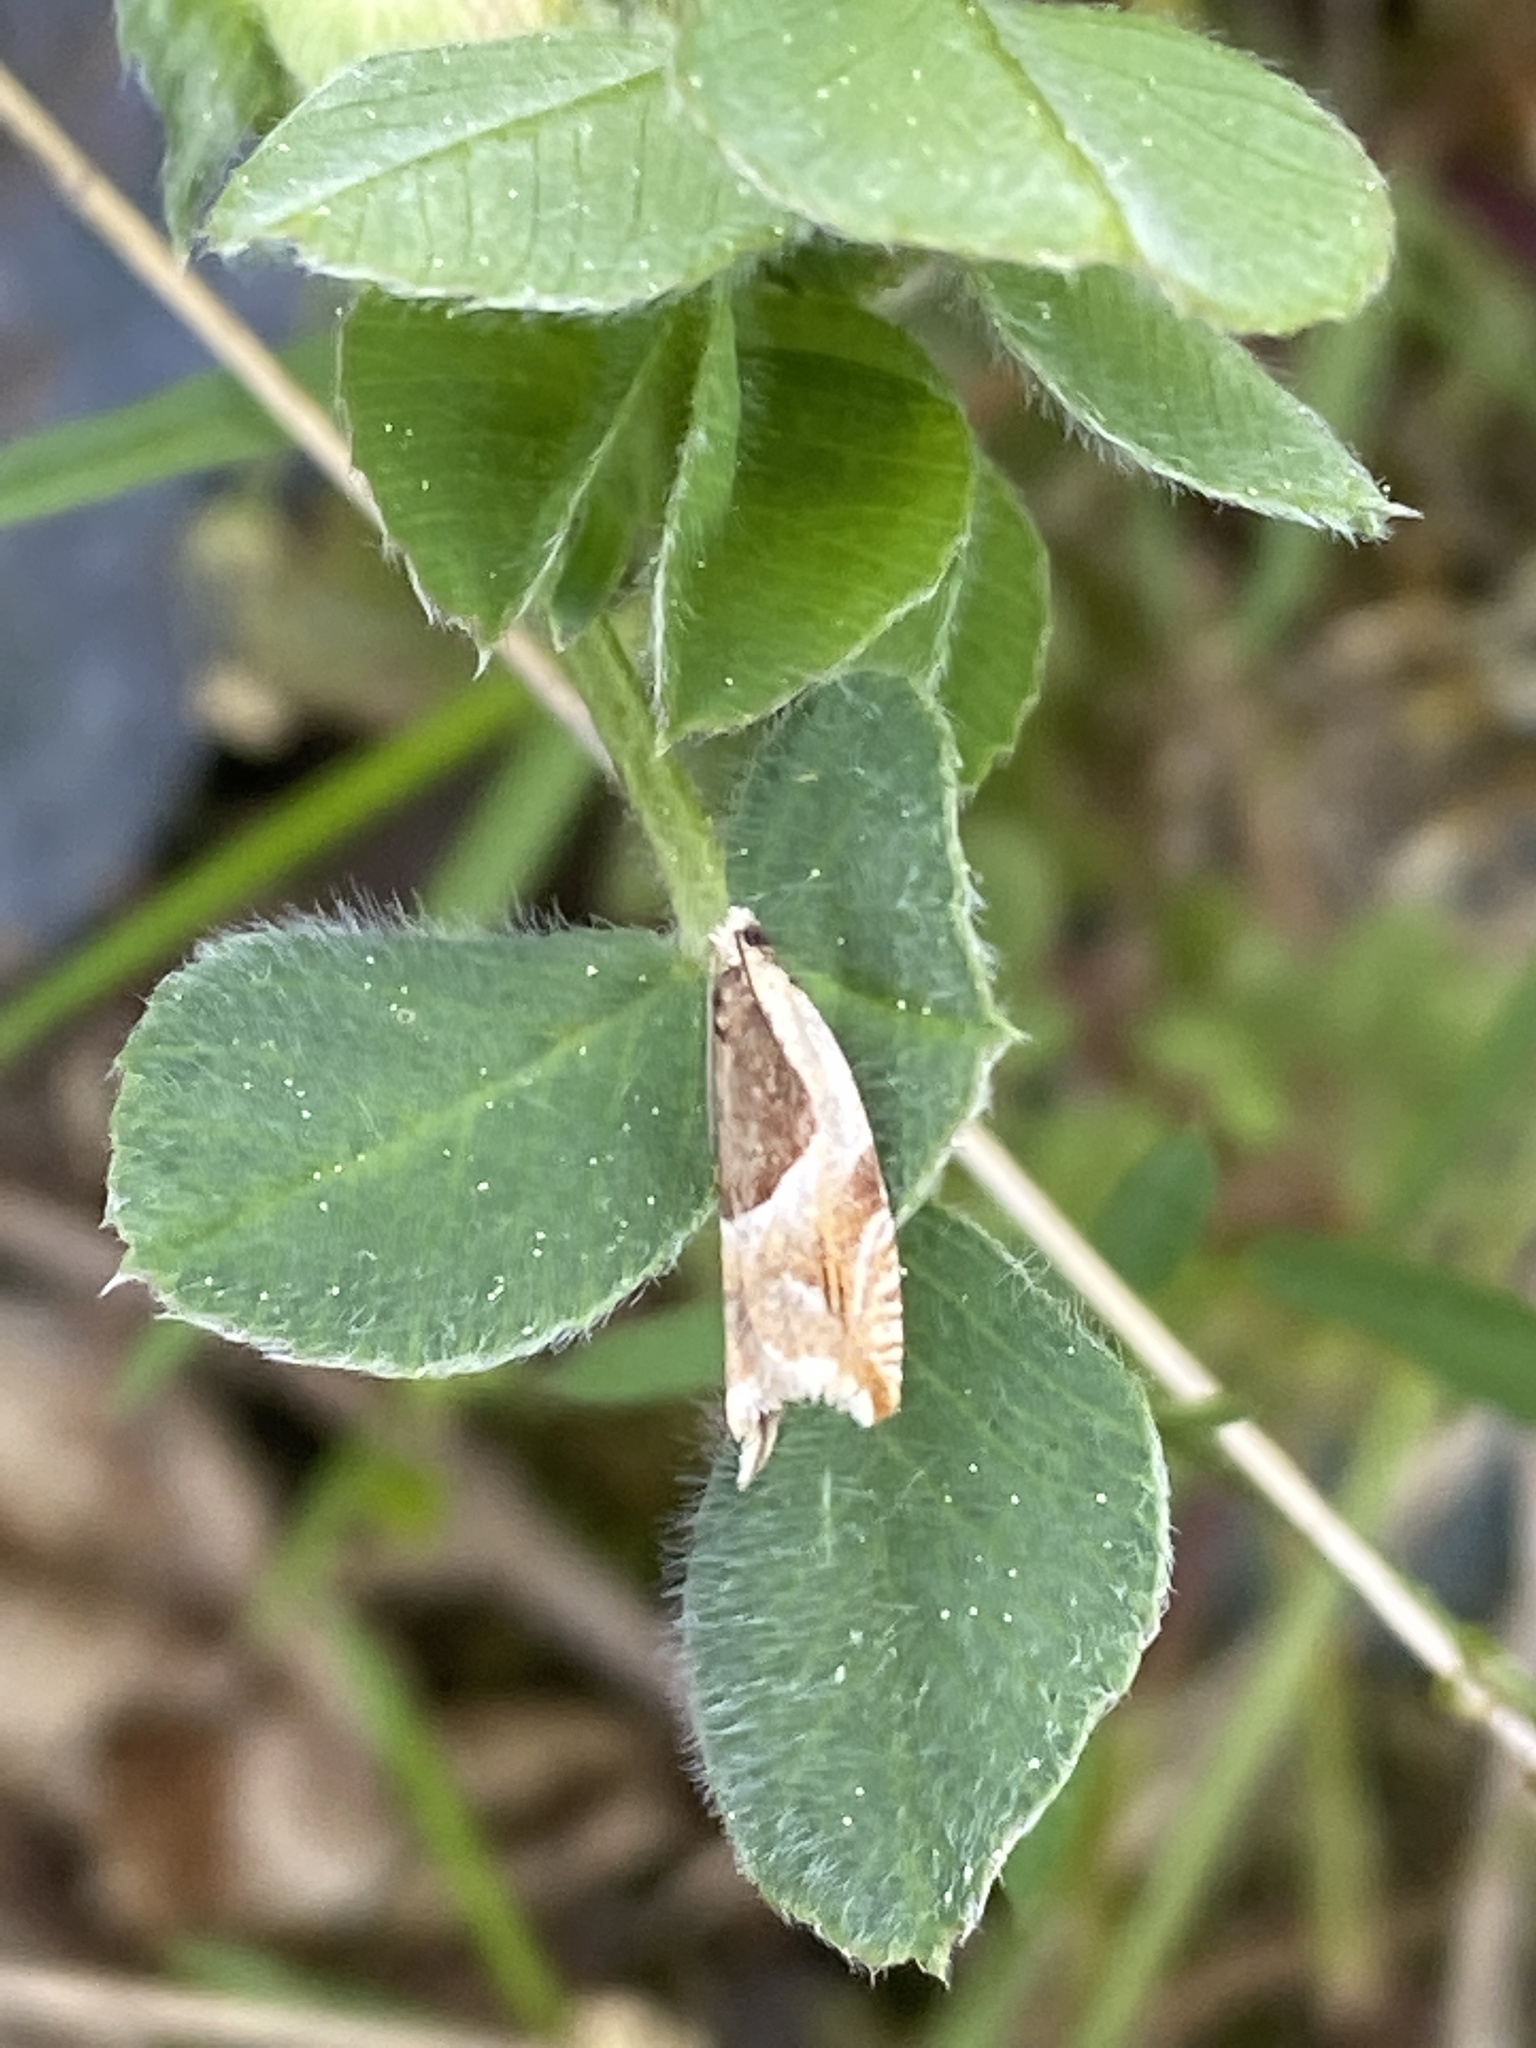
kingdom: Animalia
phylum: Arthropoda
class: Insecta
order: Lepidoptera
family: Tortricidae
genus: Ancylis
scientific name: Ancylis badiana
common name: Common roller
